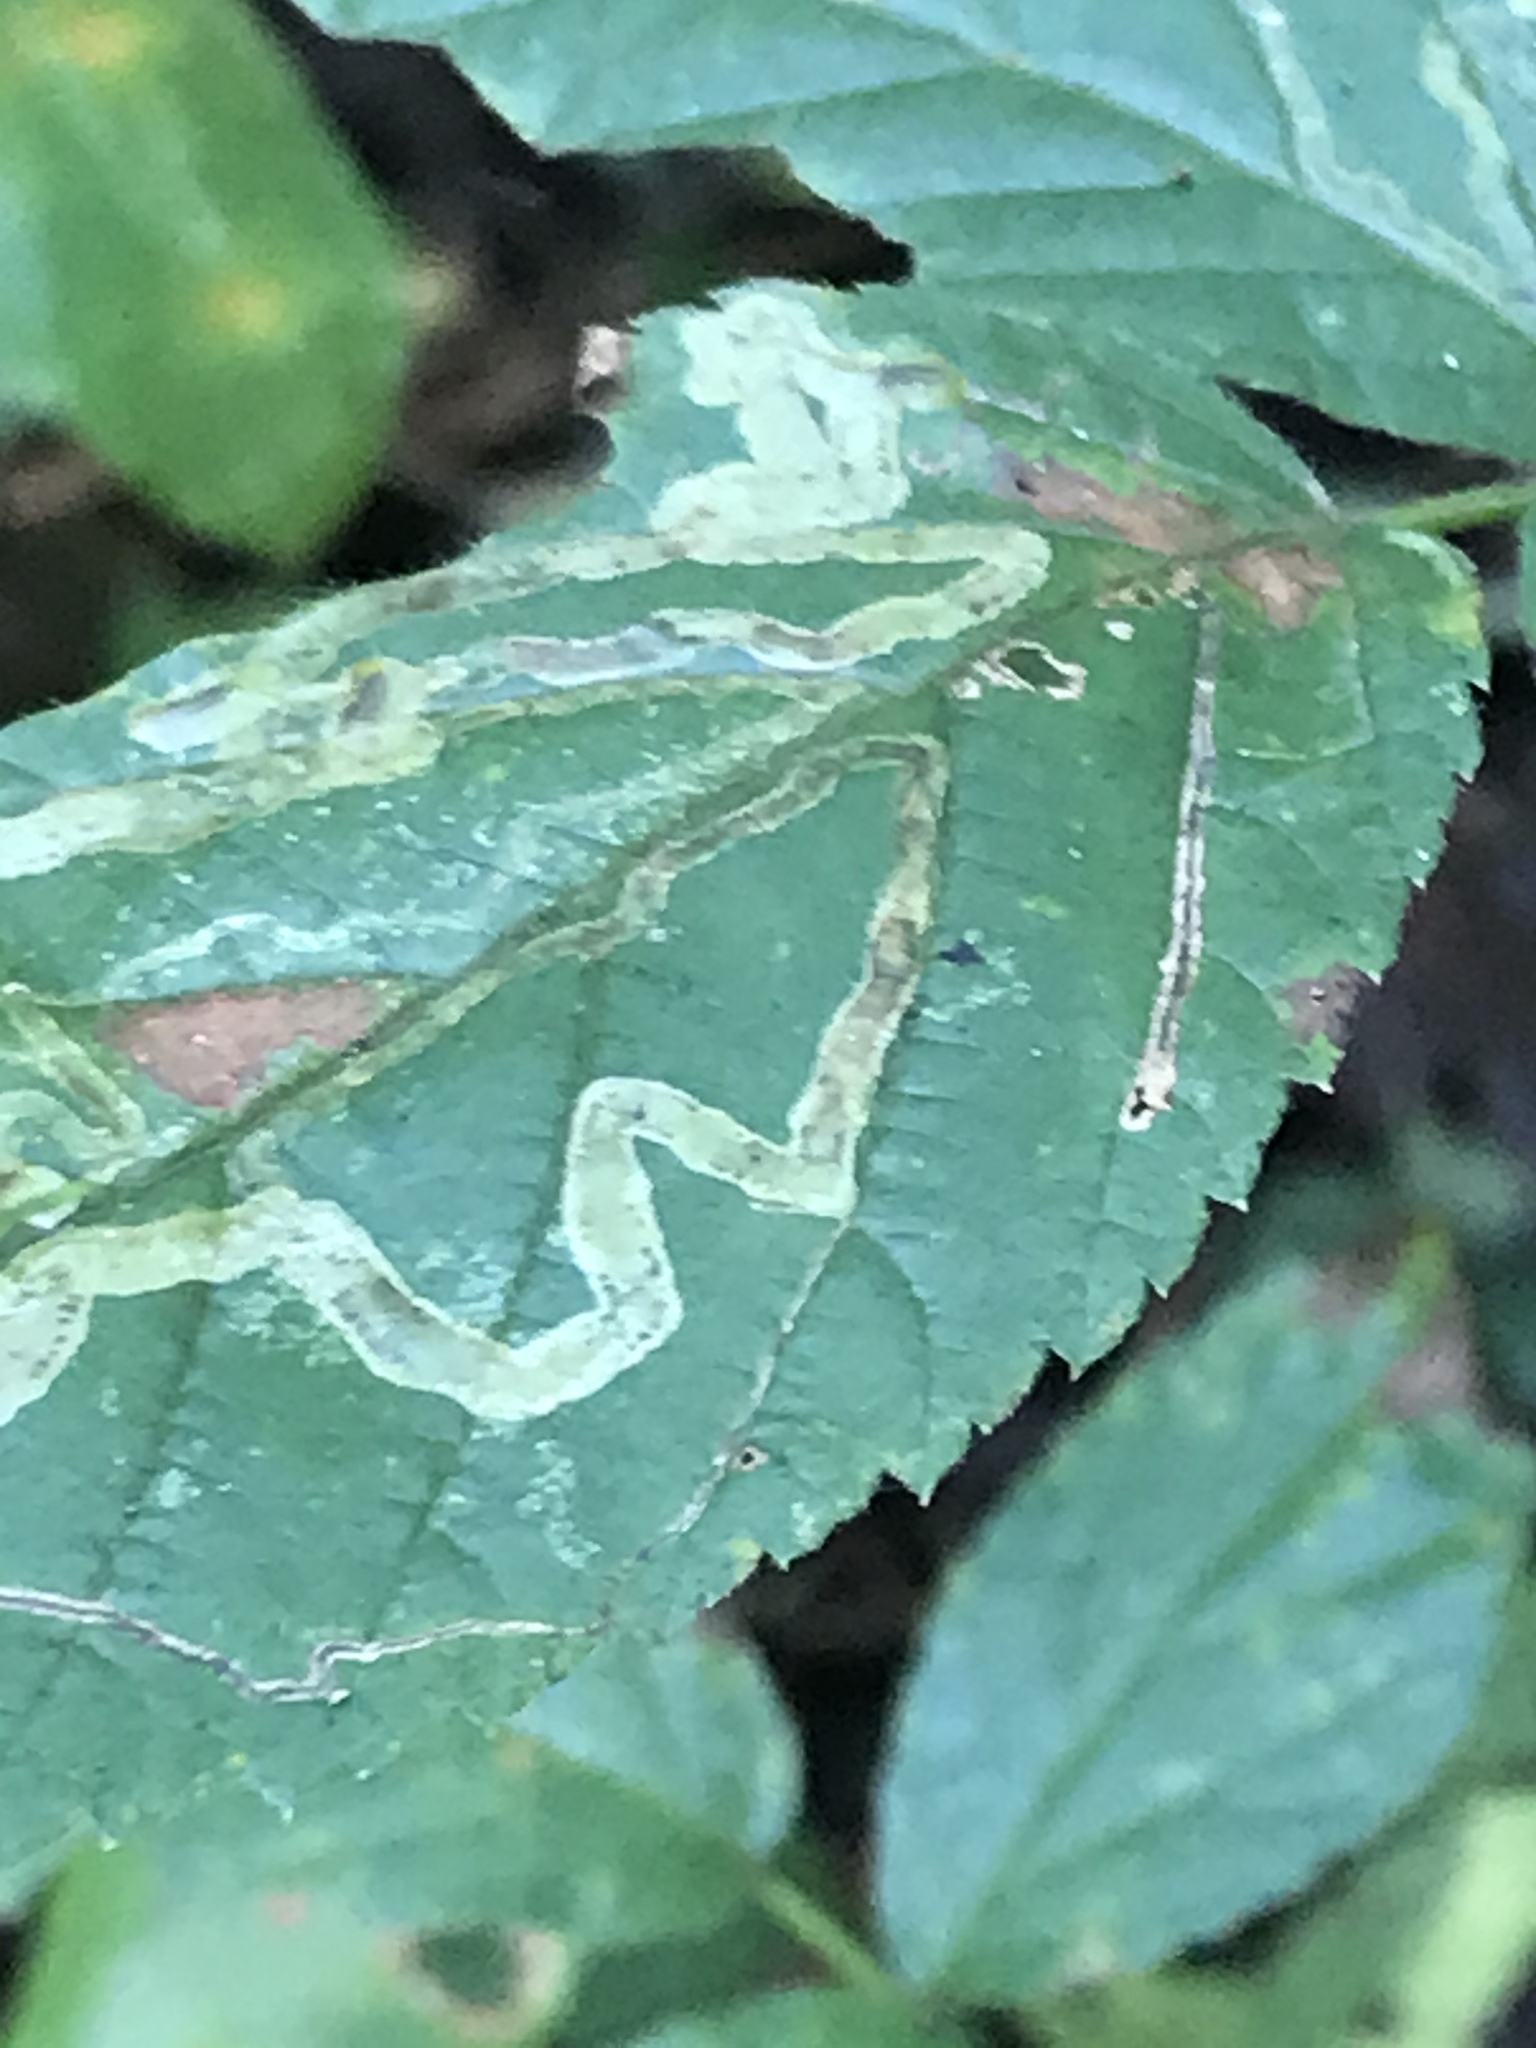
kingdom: Animalia
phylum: Arthropoda
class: Insecta
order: Diptera
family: Agromyzidae
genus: Agromyza
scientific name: Agromyza vockerothi
